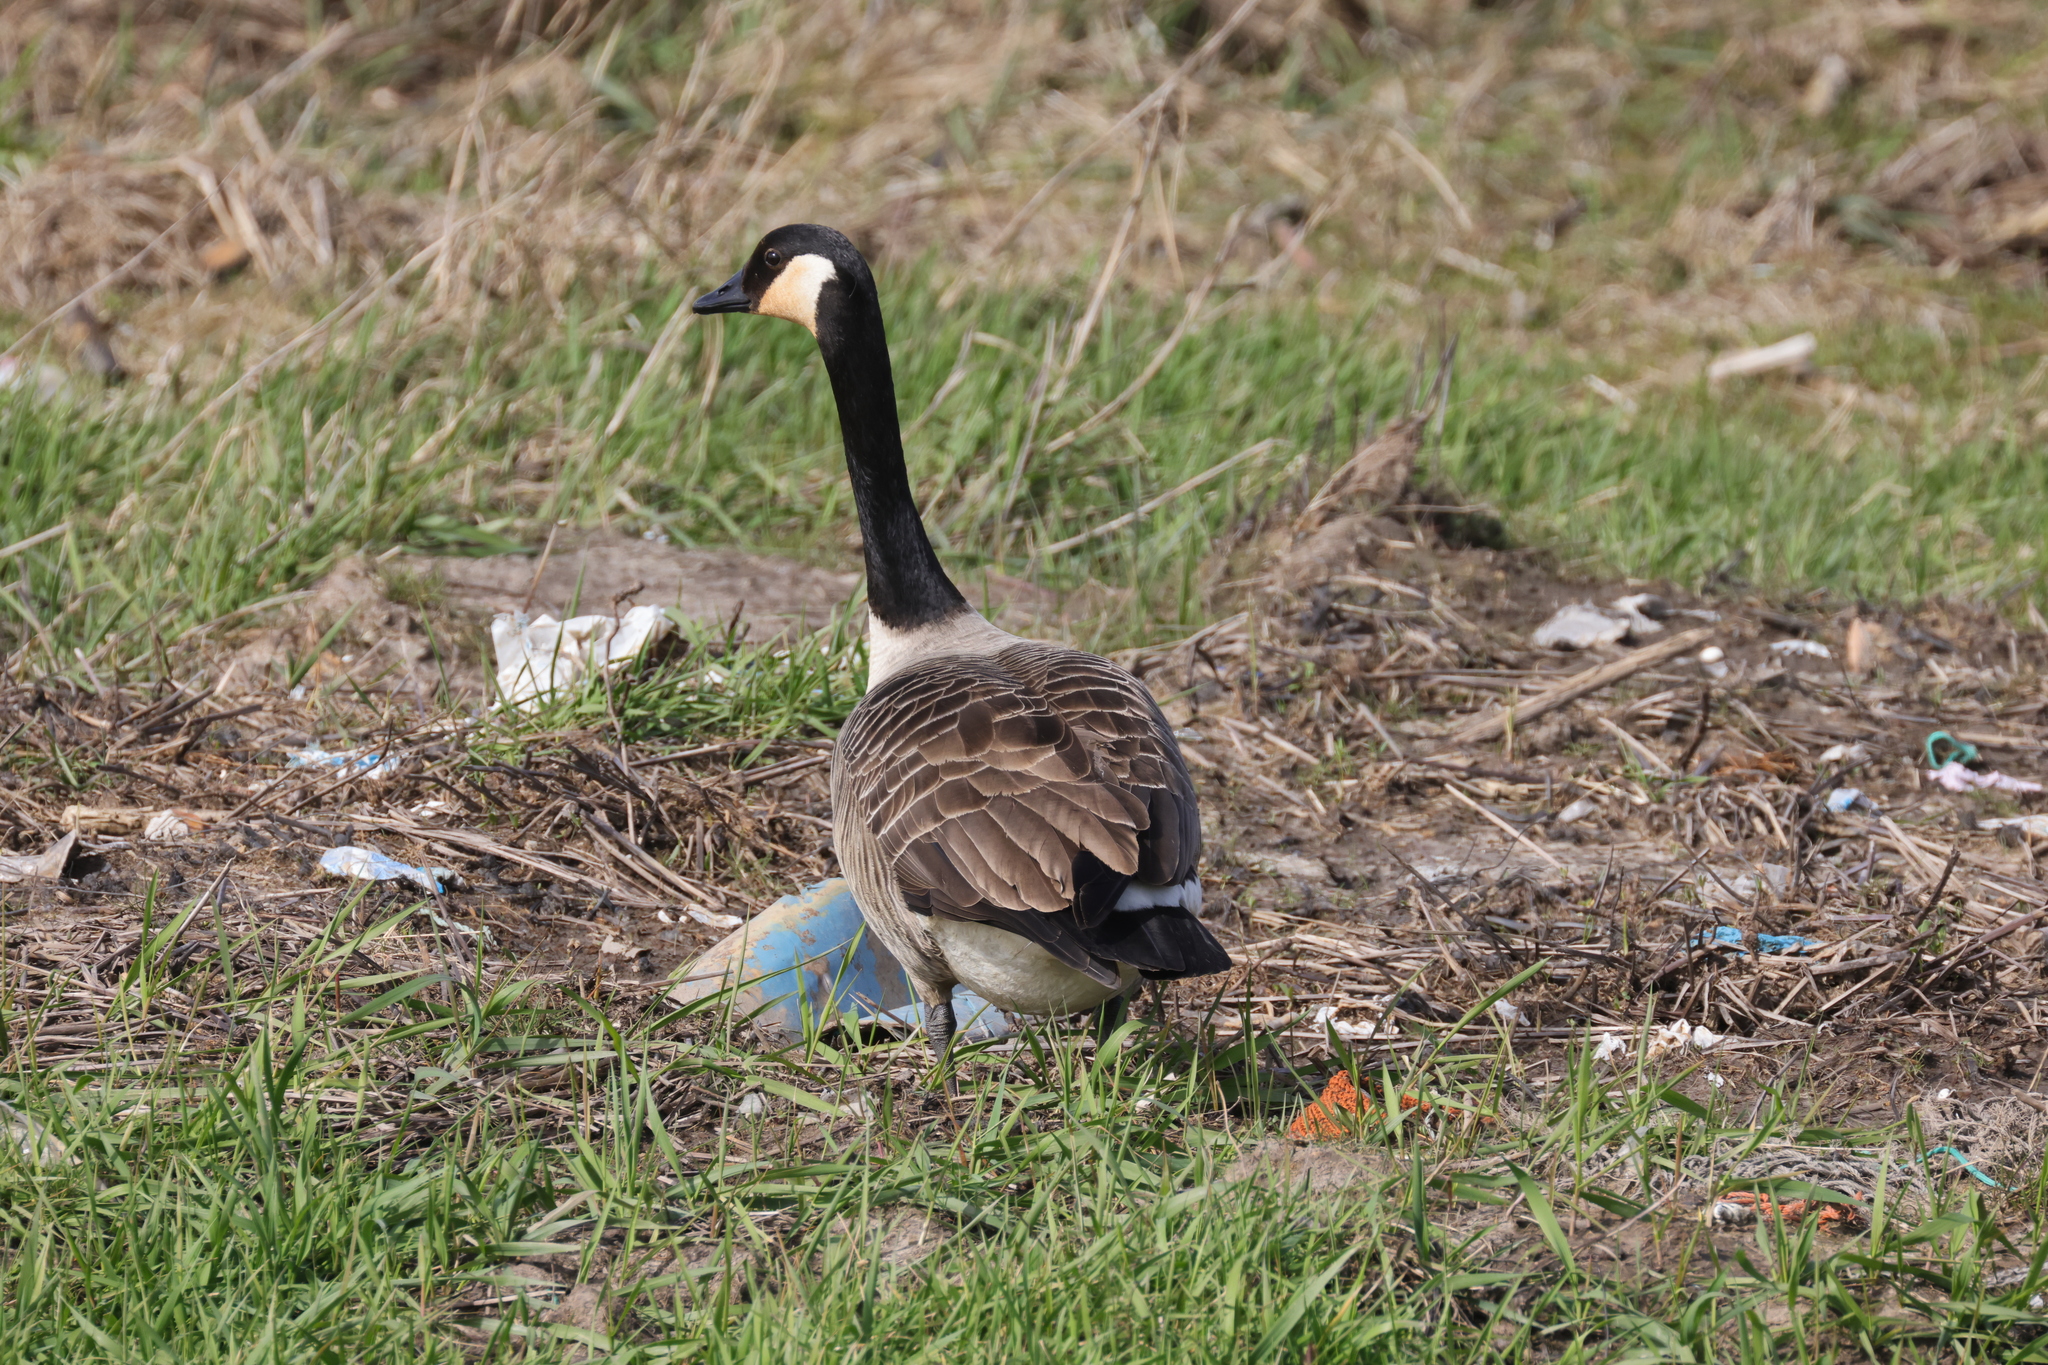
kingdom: Animalia
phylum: Chordata
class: Aves
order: Anseriformes
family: Anatidae
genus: Branta
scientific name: Branta canadensis
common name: Canada goose
